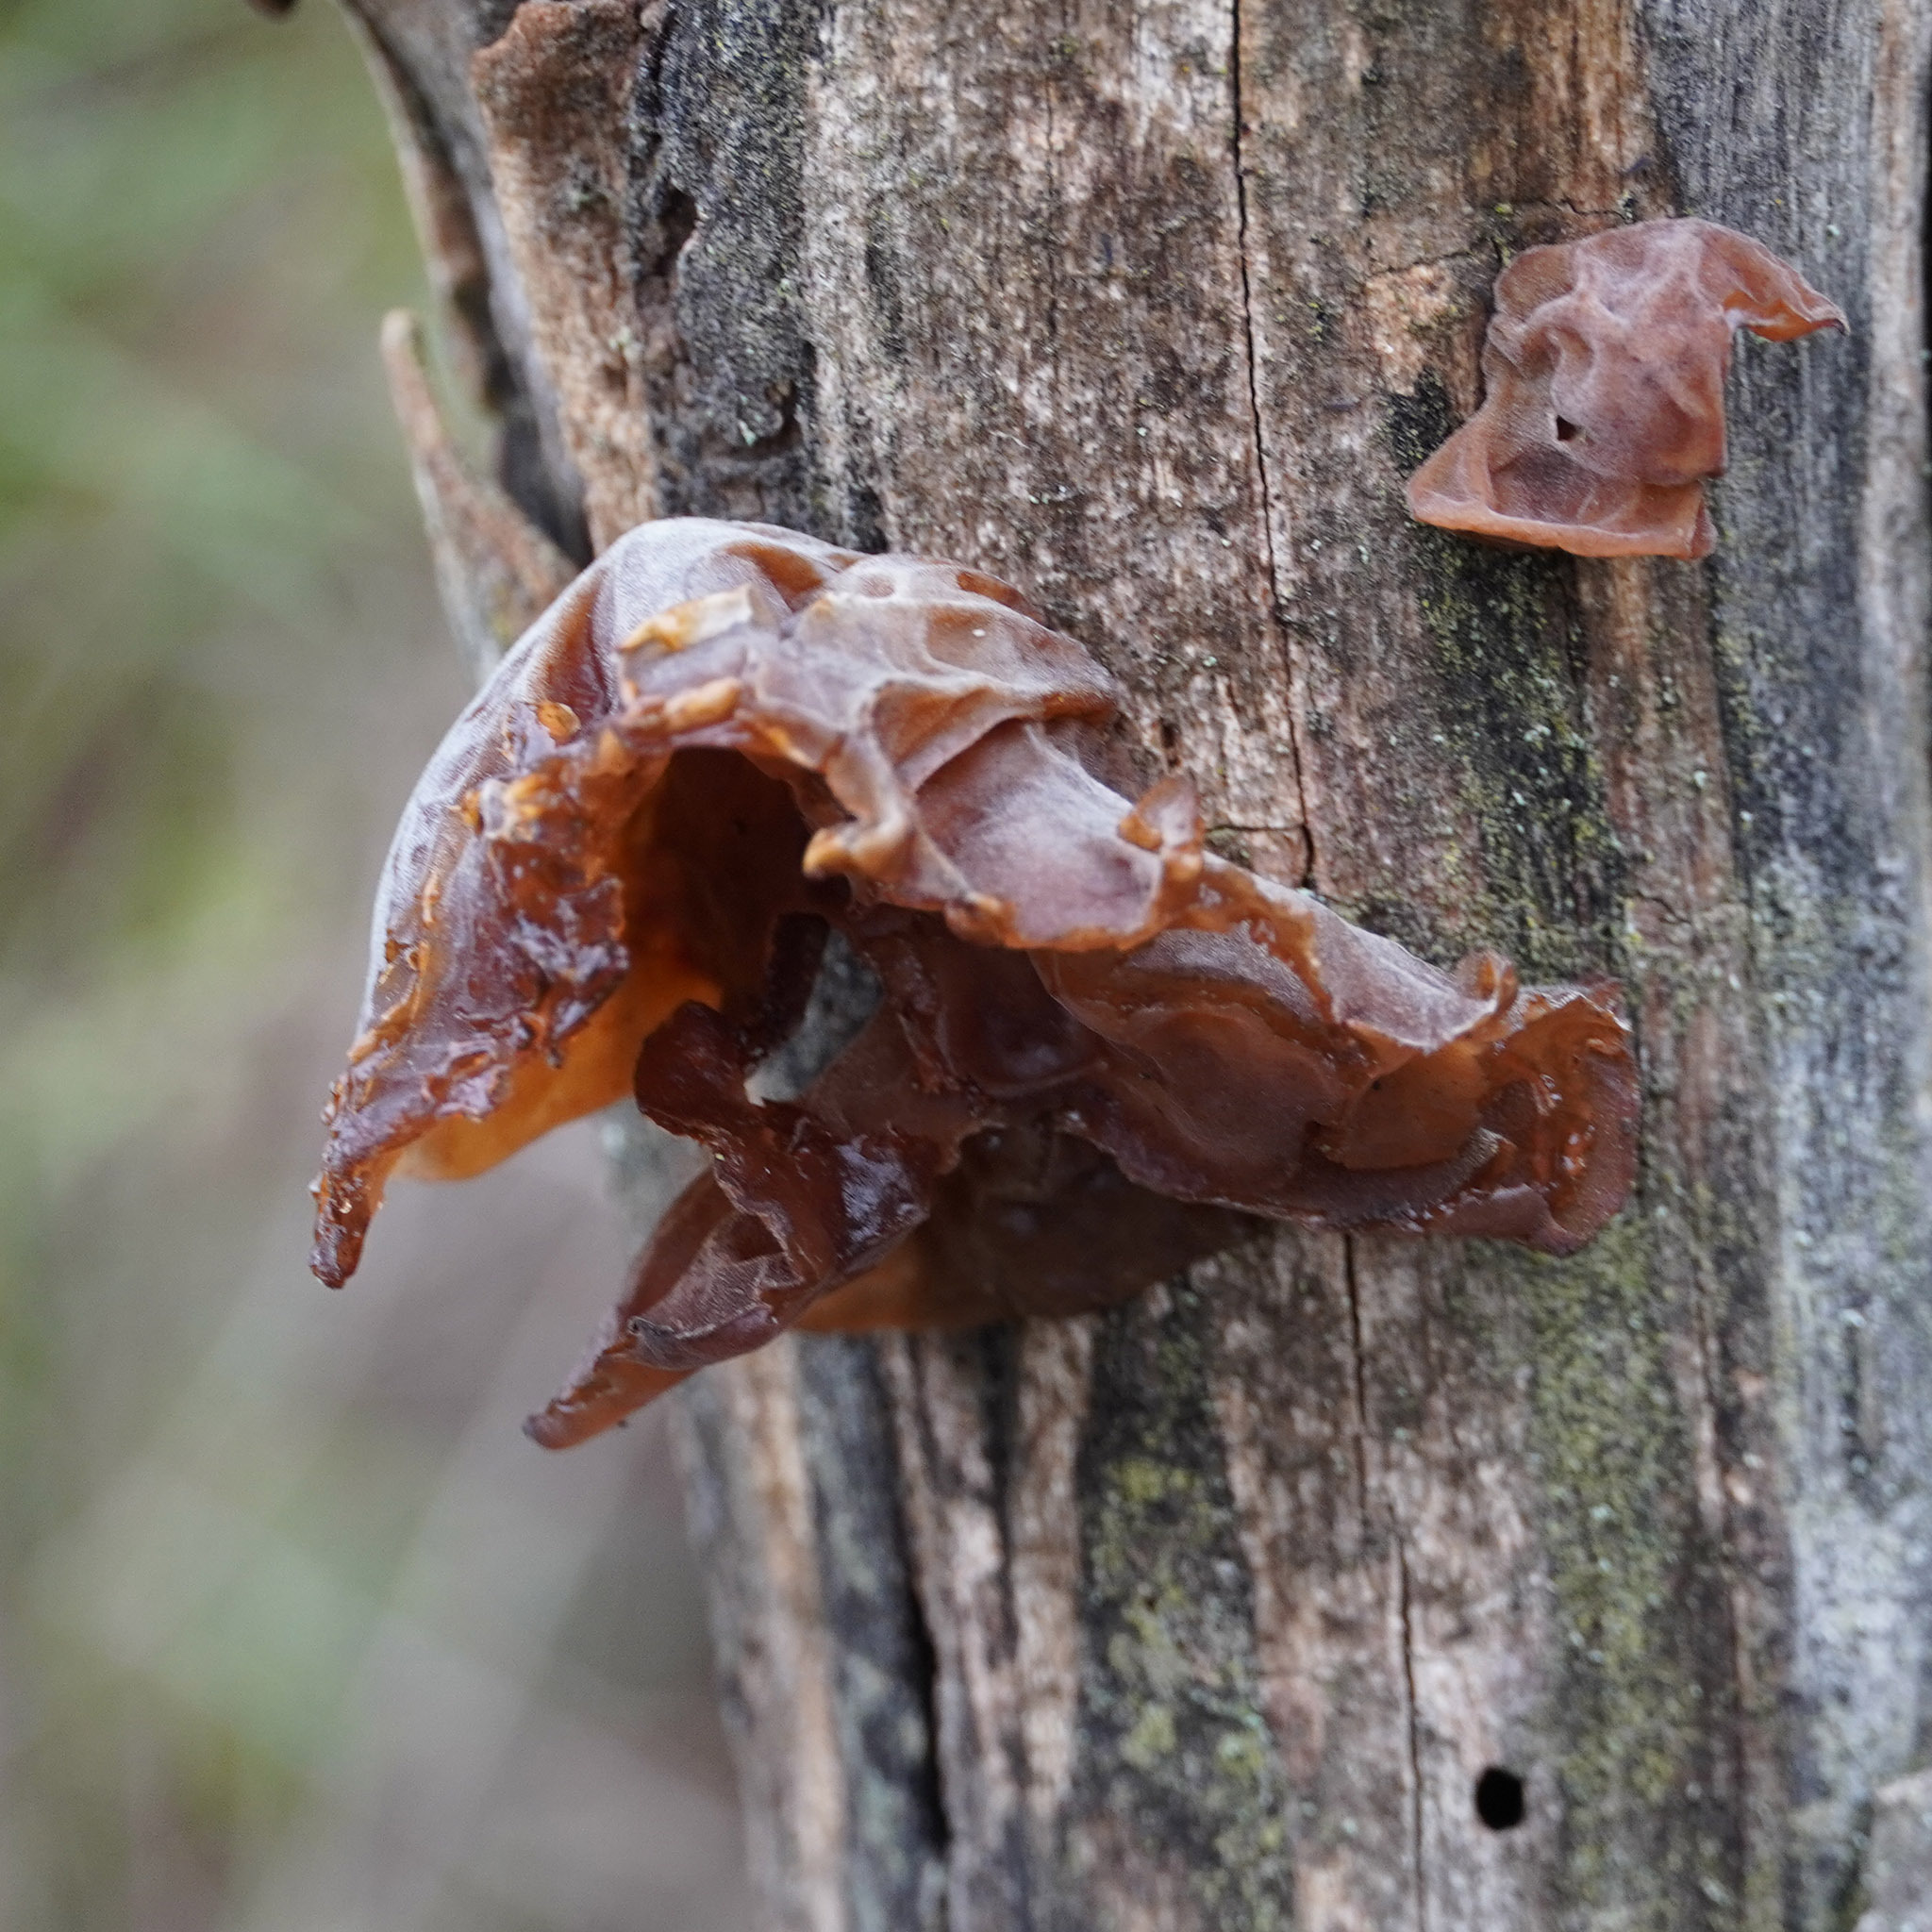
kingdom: Fungi
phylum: Basidiomycota
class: Agaricomycetes
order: Auriculariales
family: Auriculariaceae
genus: Auricularia
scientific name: Auricularia auricula-judae
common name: Jelly ear
